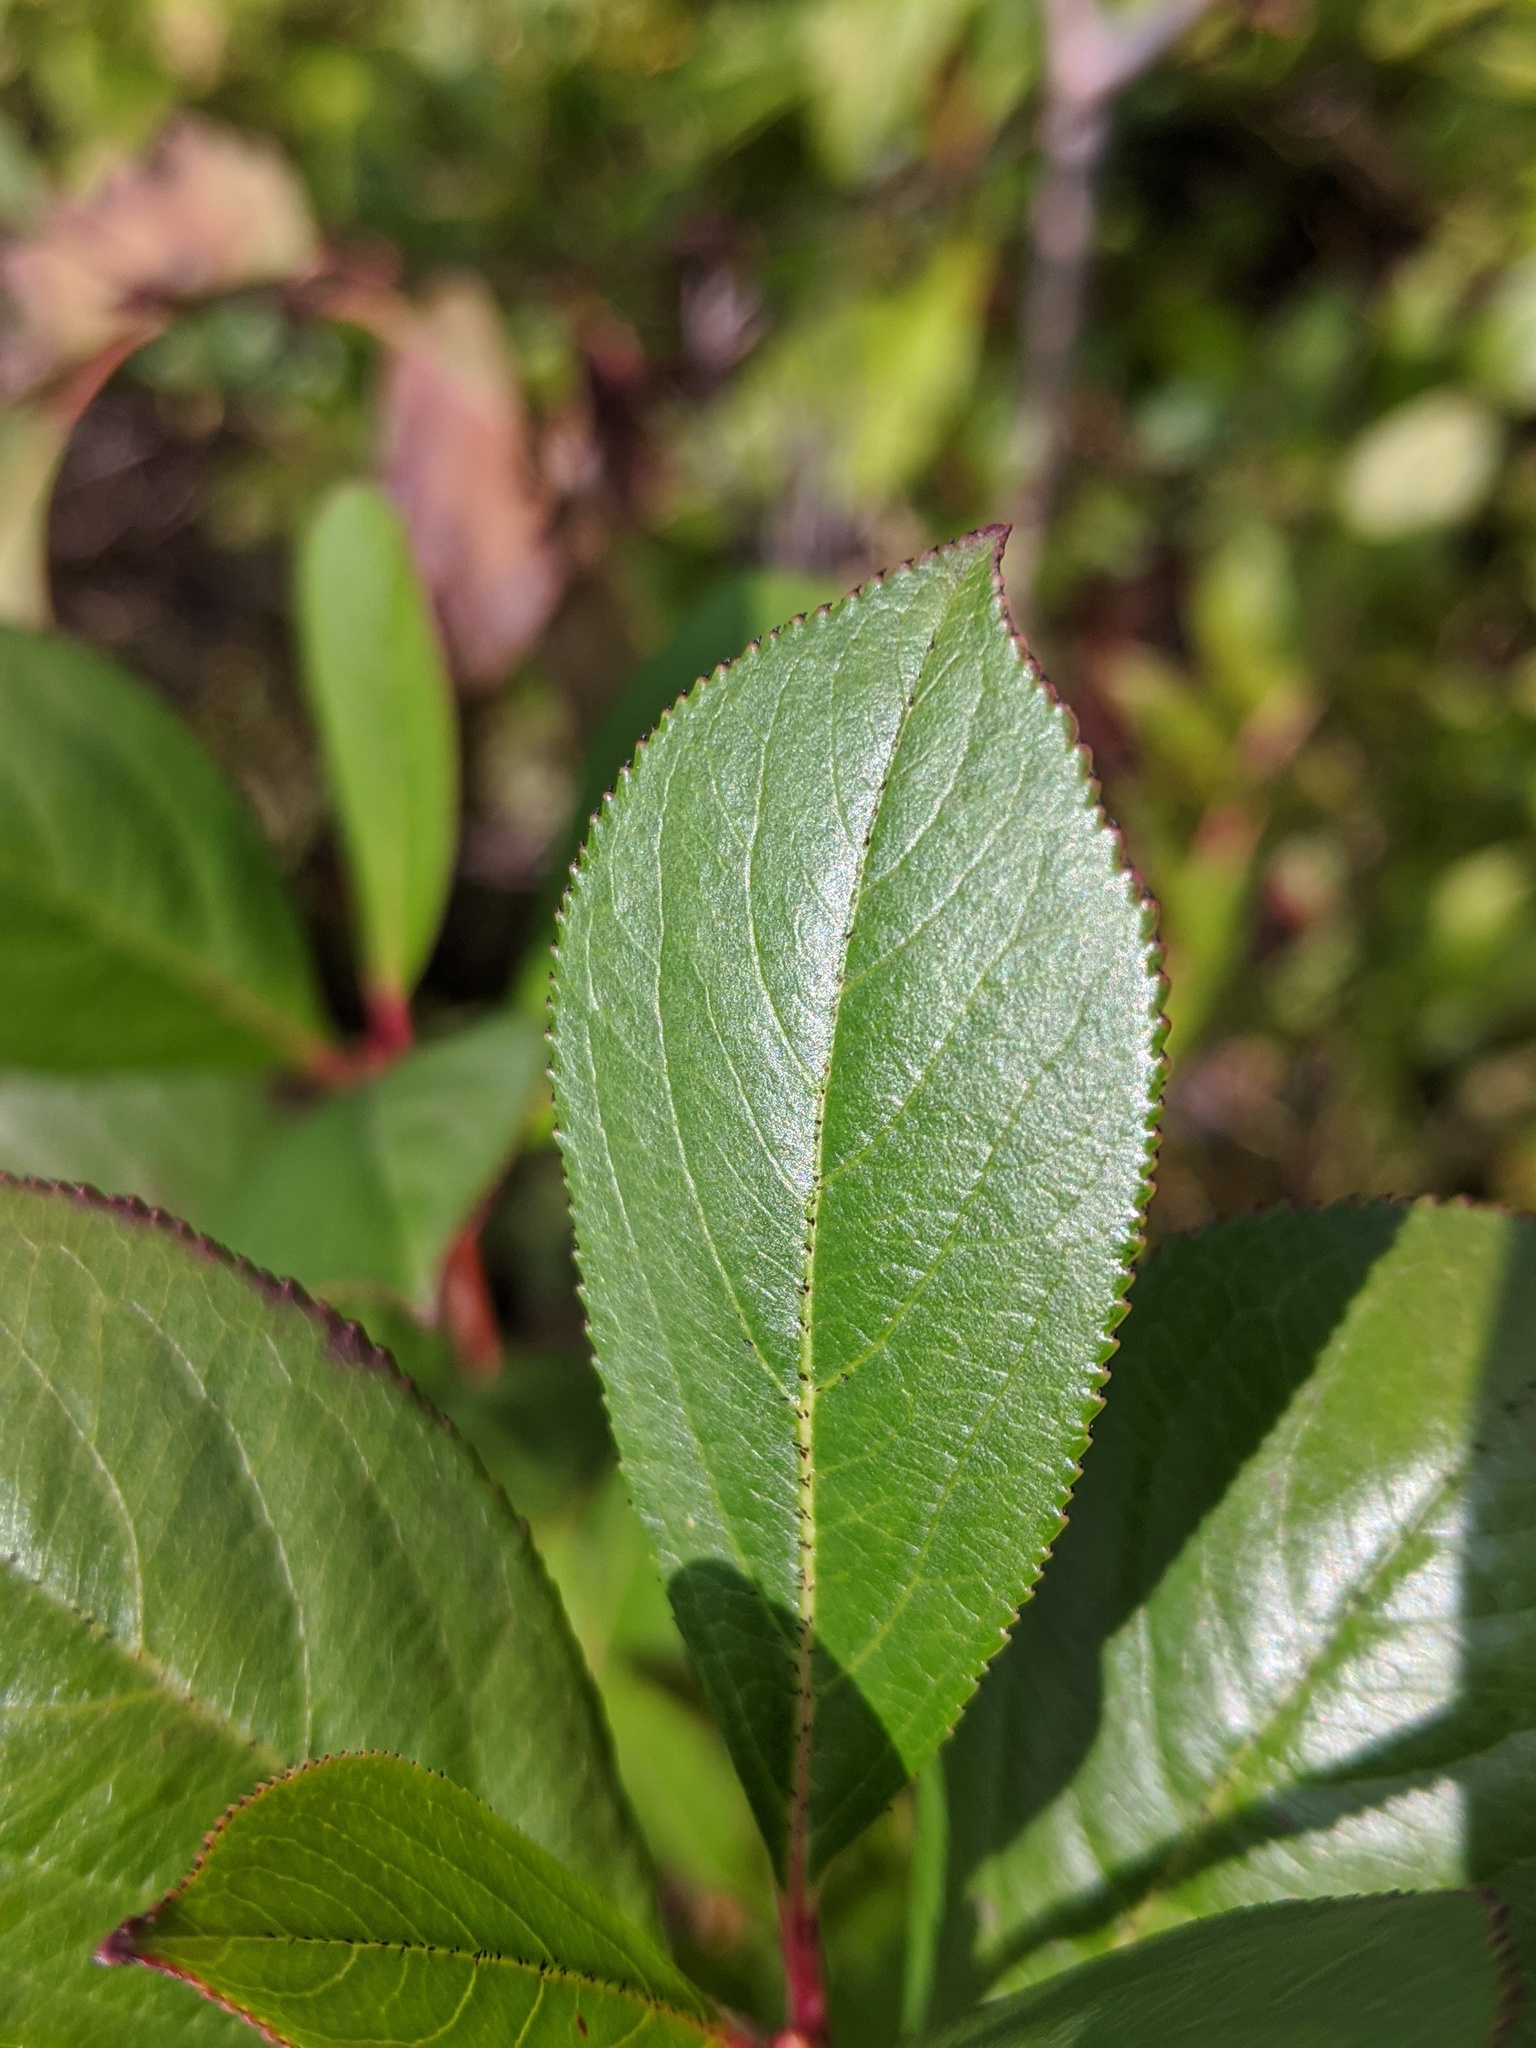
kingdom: Plantae
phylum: Tracheophyta
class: Magnoliopsida
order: Rosales
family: Rosaceae
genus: Aronia
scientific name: Aronia melanocarpa
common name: Black chokeberry
